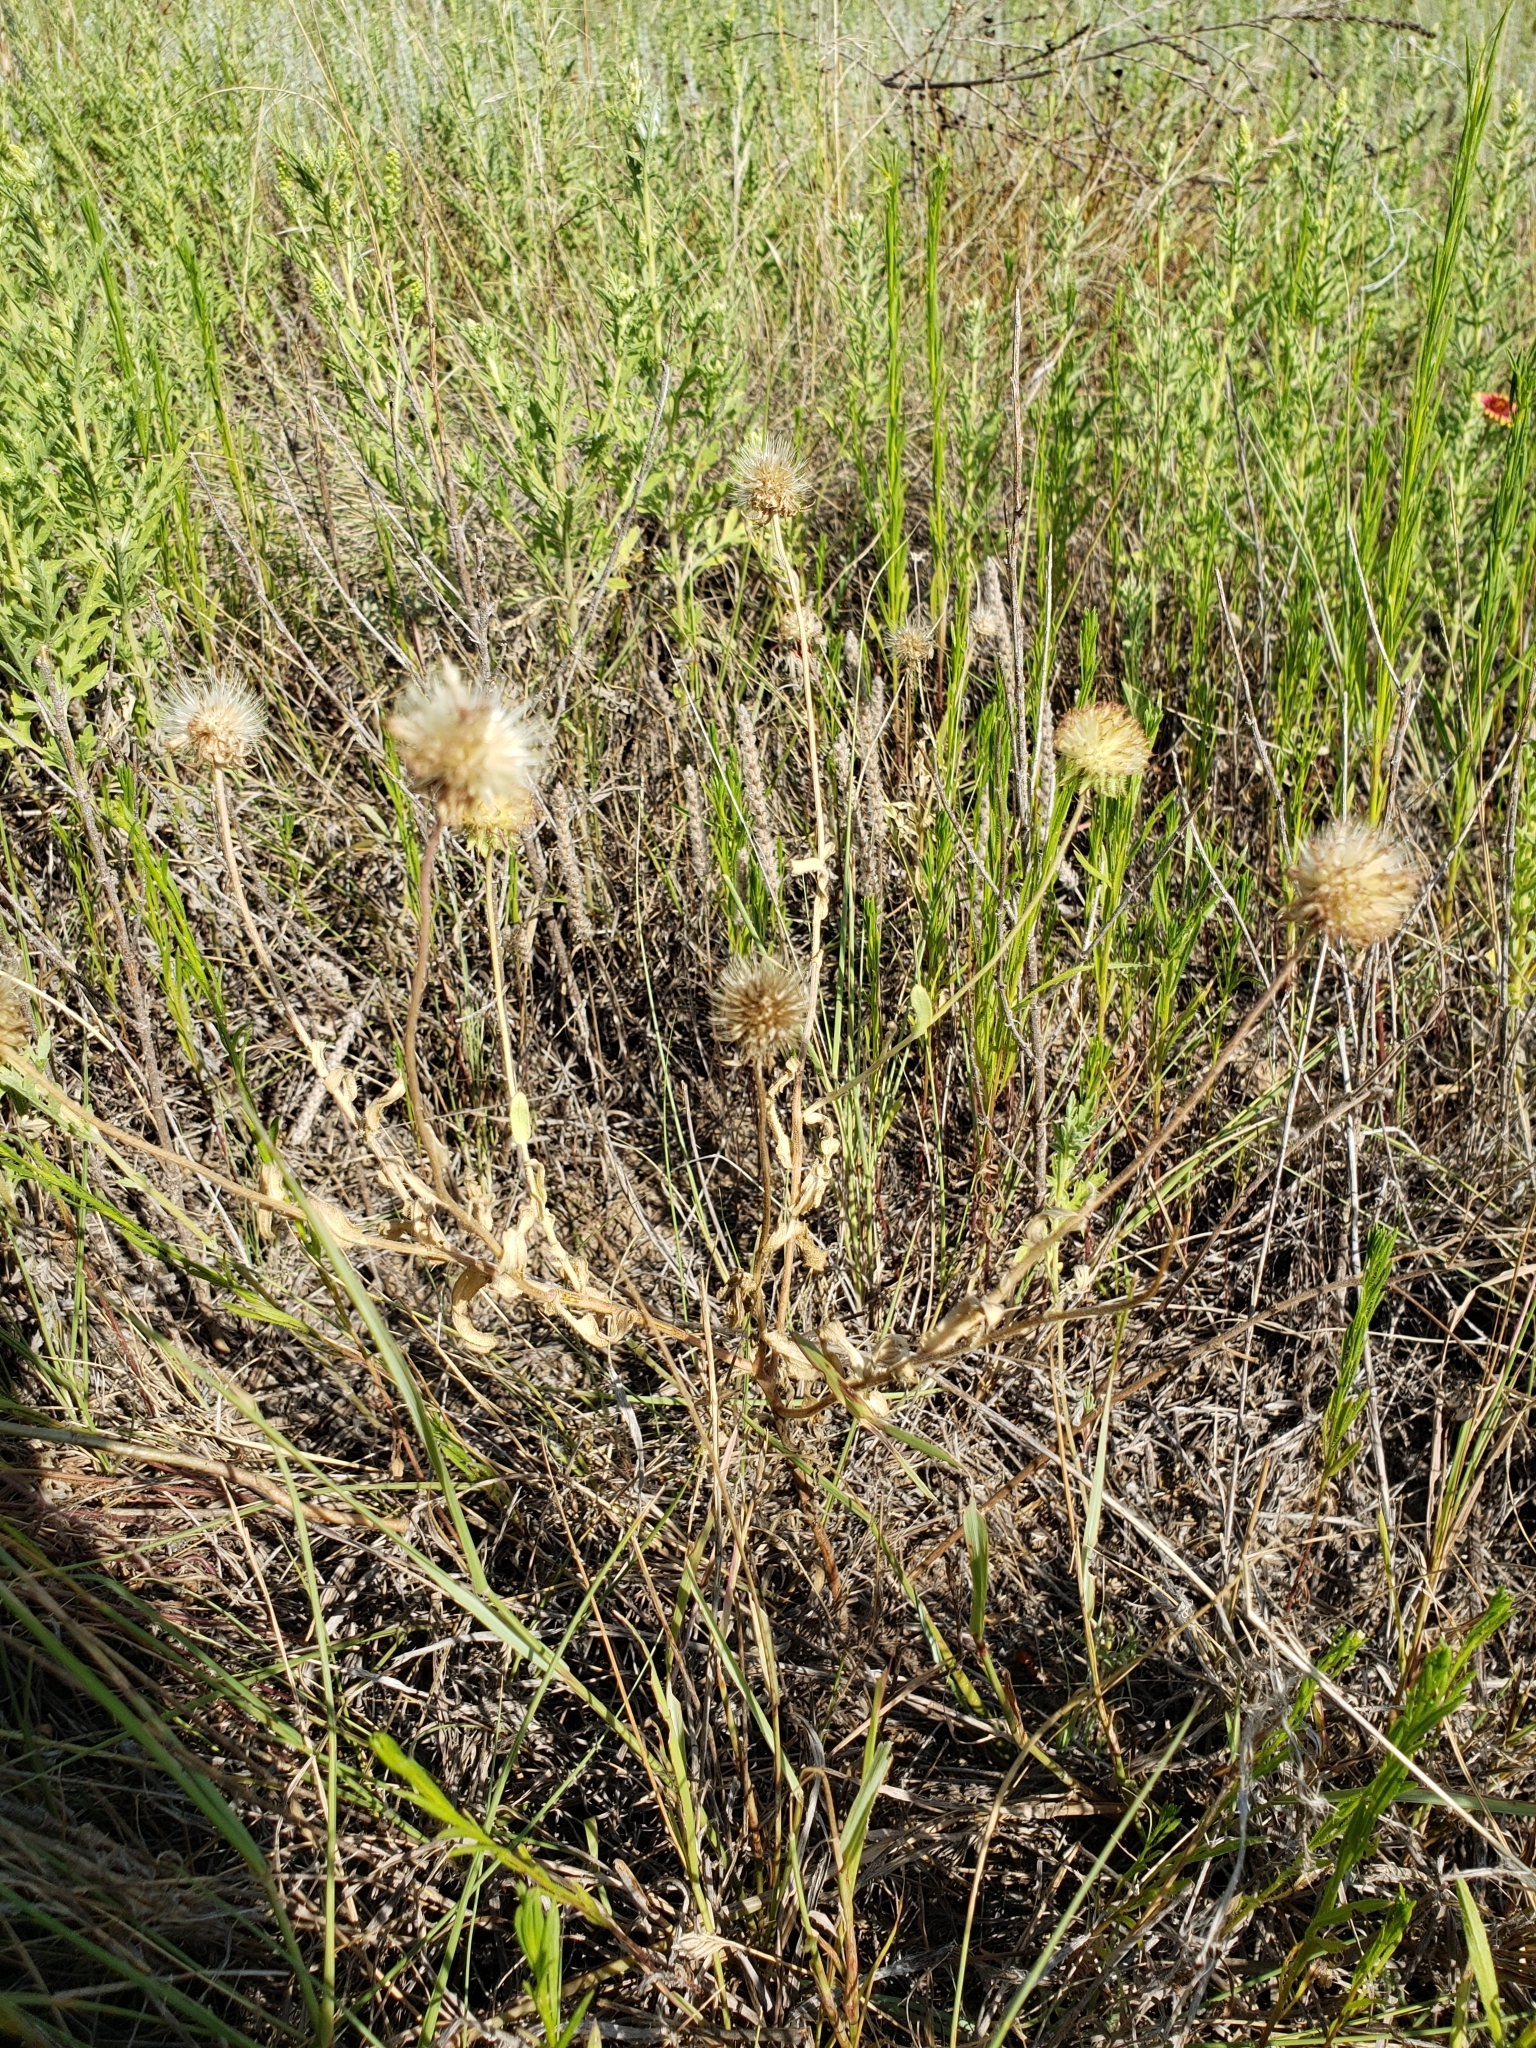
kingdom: Plantae
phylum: Tracheophyta
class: Magnoliopsida
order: Asterales
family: Asteraceae
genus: Gaillardia
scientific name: Gaillardia pulchella
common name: Firewheel
